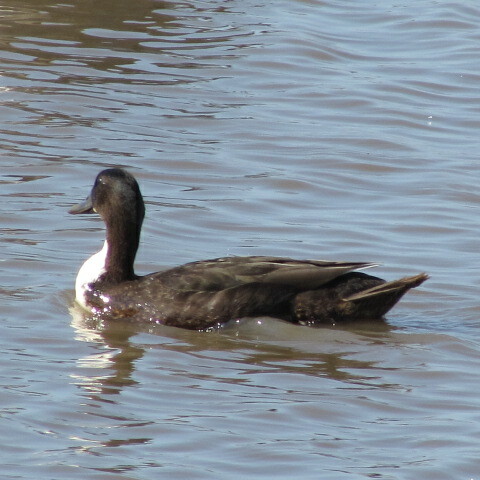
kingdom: Animalia
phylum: Chordata
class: Aves
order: Anseriformes
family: Anatidae
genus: Anas
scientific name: Anas platyrhynchos
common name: Mallard
